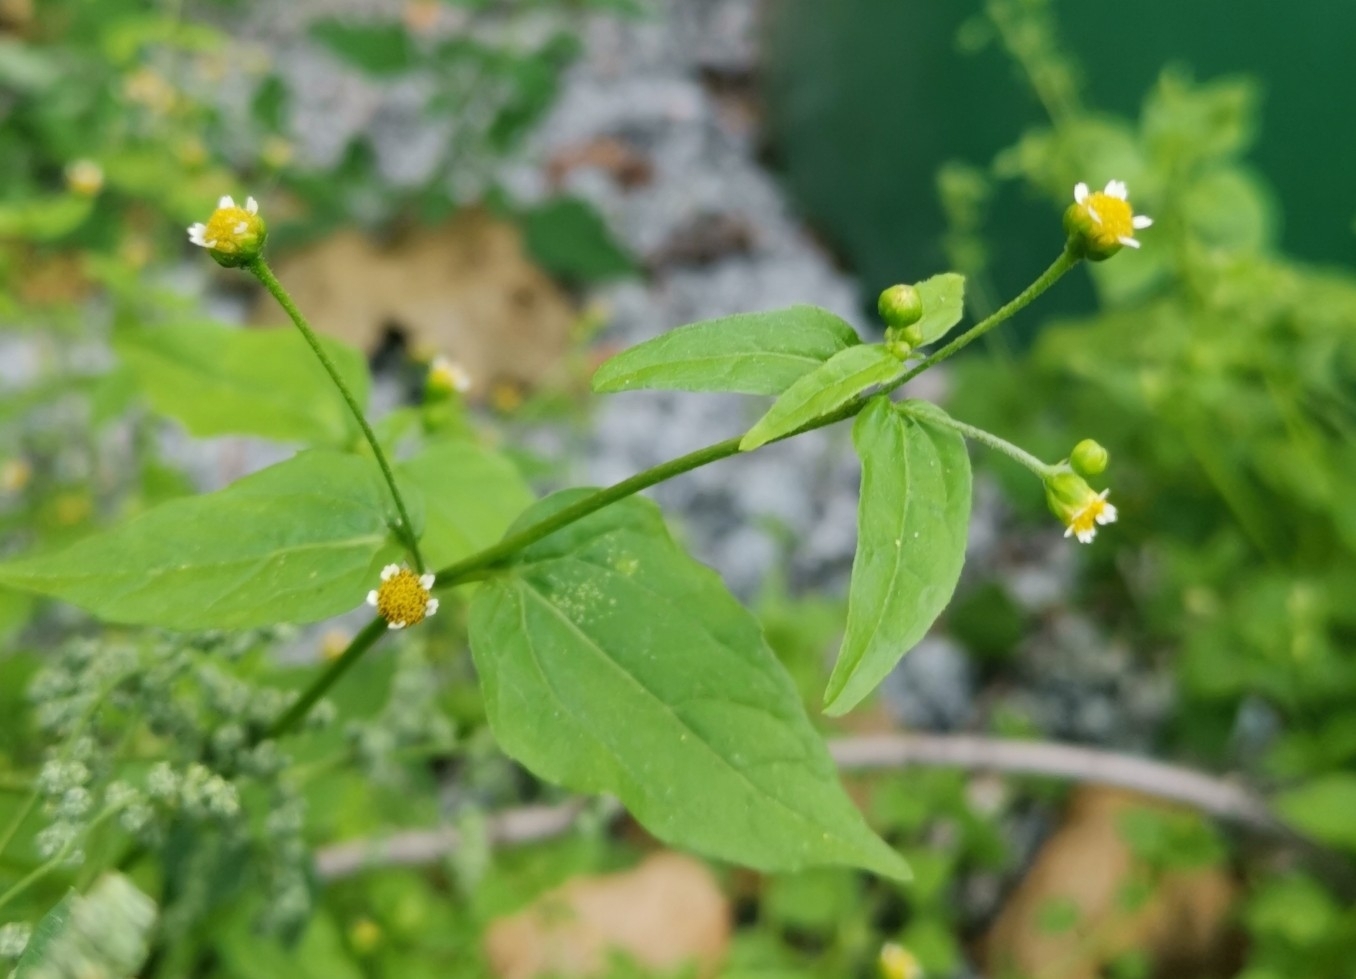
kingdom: Plantae
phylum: Tracheophyta
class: Magnoliopsida
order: Asterales
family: Asteraceae
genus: Galinsoga
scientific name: Galinsoga parviflora
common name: Gallant soldier
